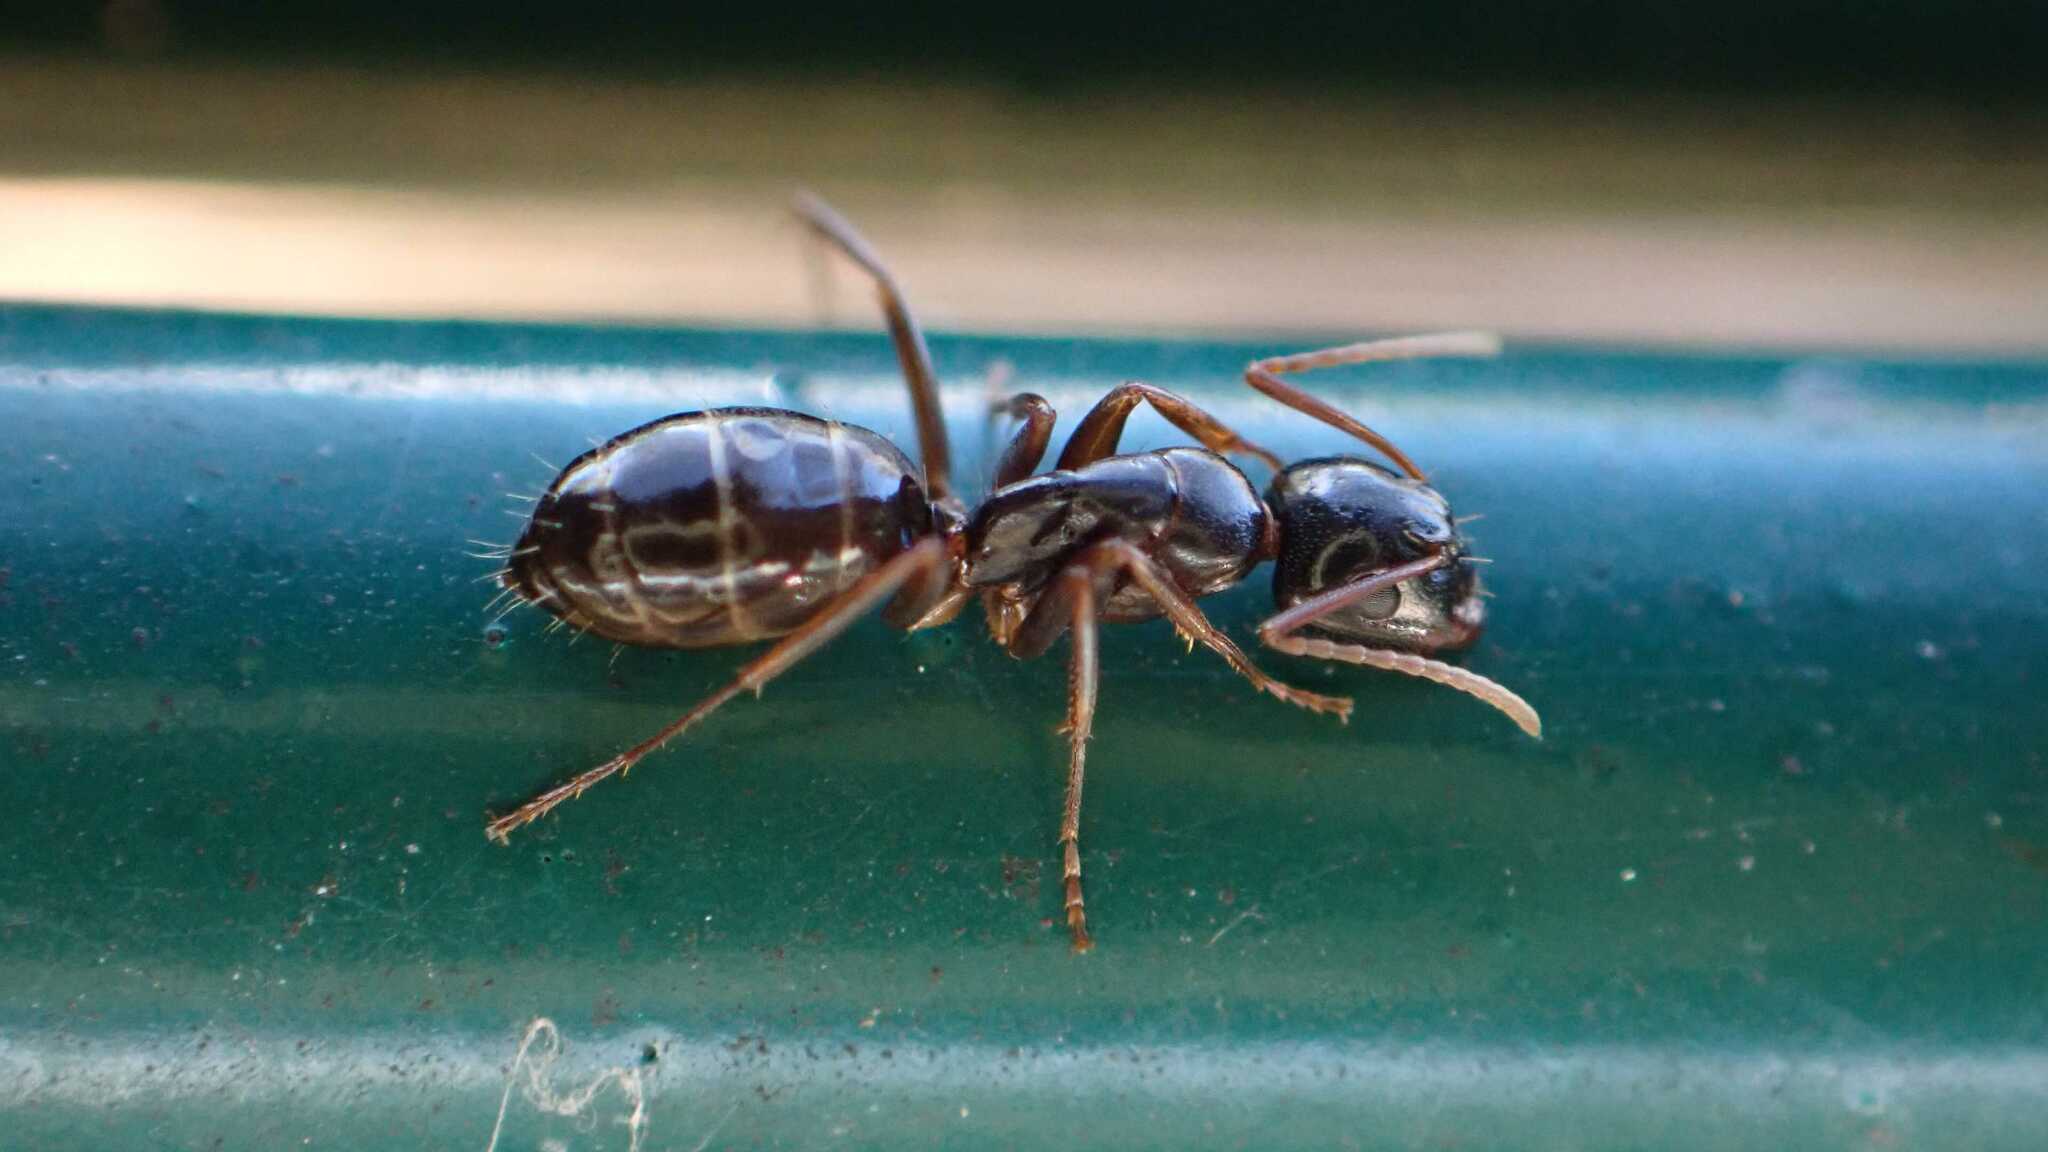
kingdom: Animalia
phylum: Arthropoda
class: Insecta
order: Hymenoptera
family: Formicidae
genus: Camponotus
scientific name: Camponotus fallax
